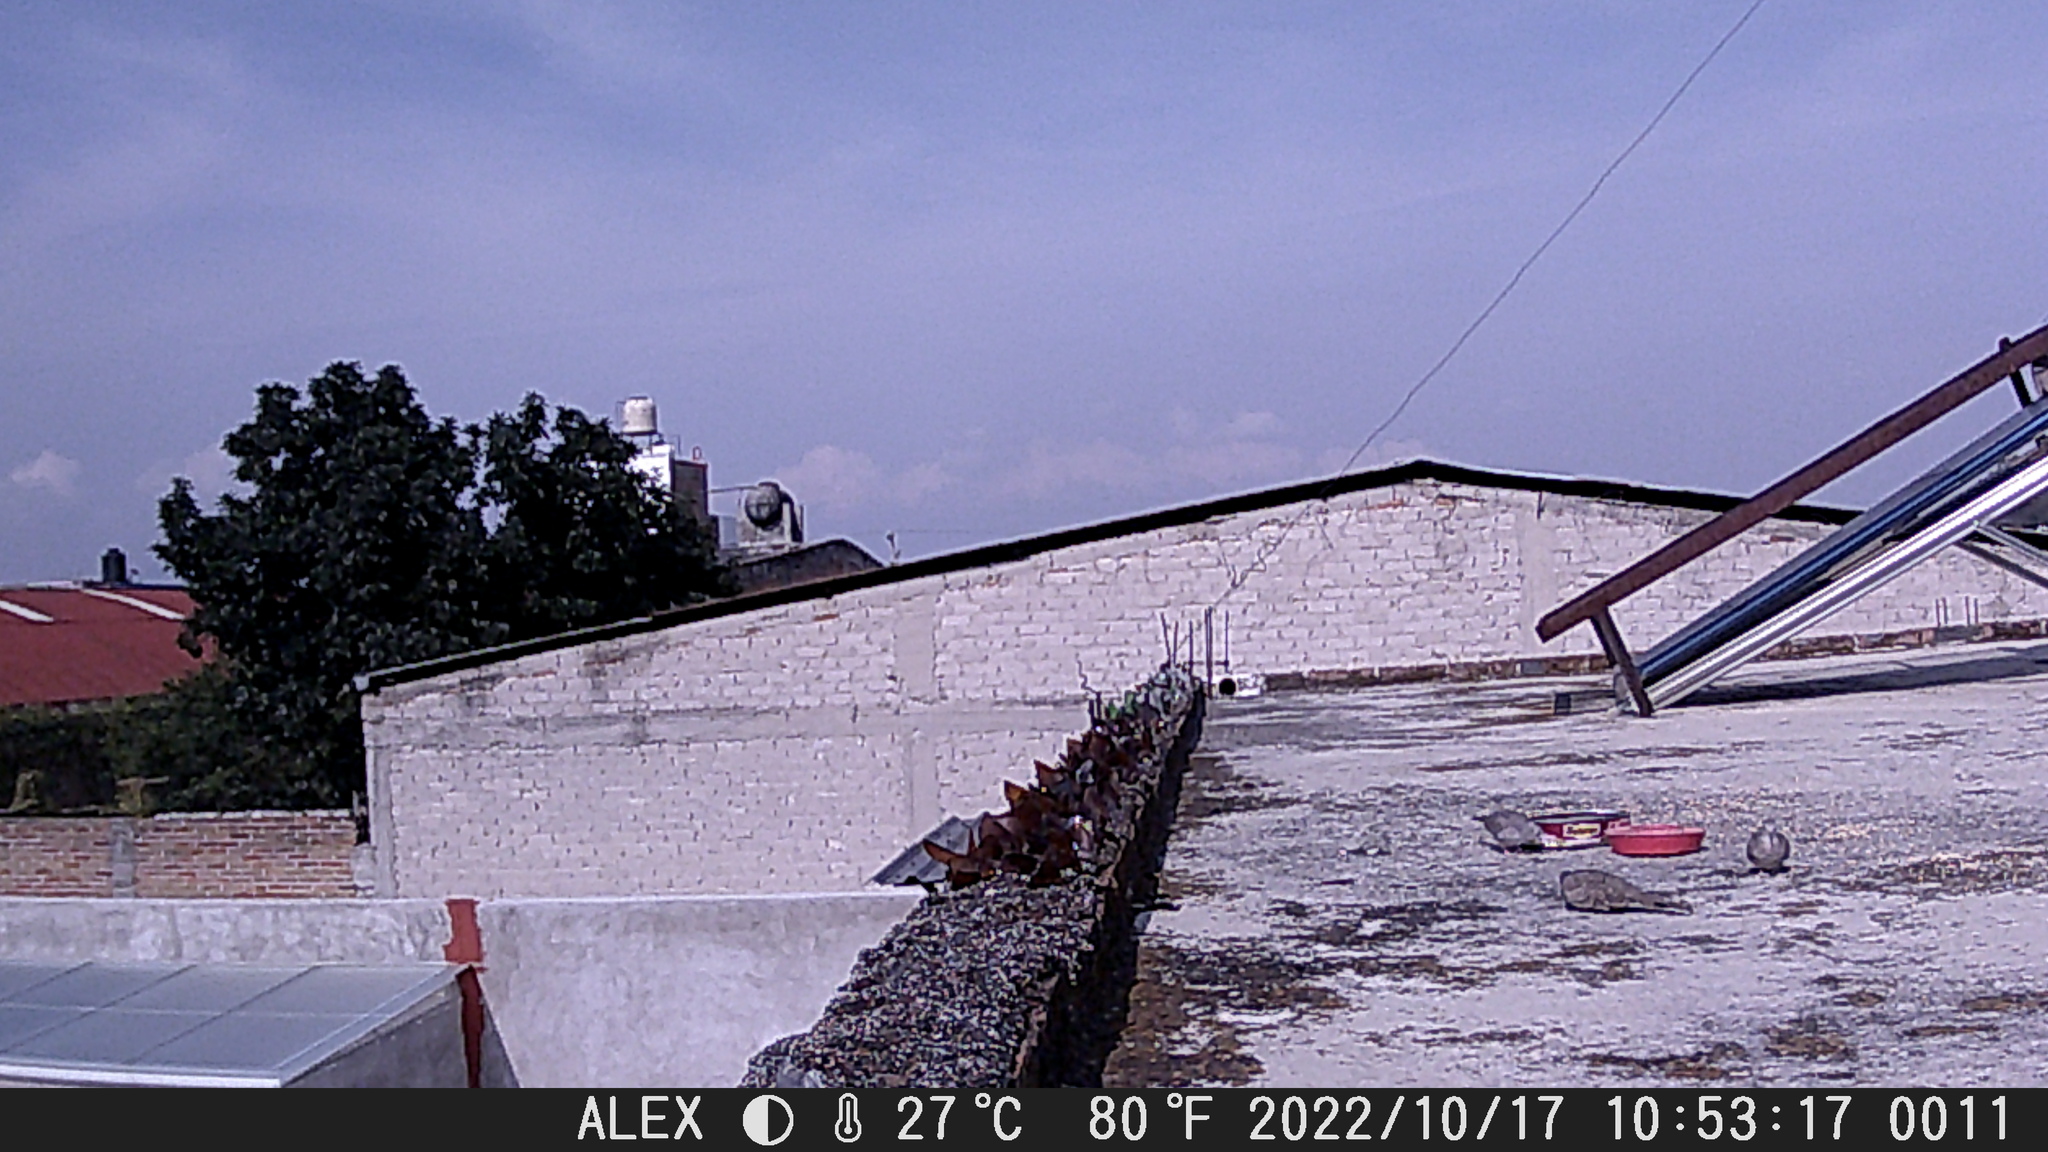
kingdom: Animalia
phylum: Chordata
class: Aves
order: Columbiformes
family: Columbidae
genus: Columbina
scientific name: Columbina inca
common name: Inca dove
